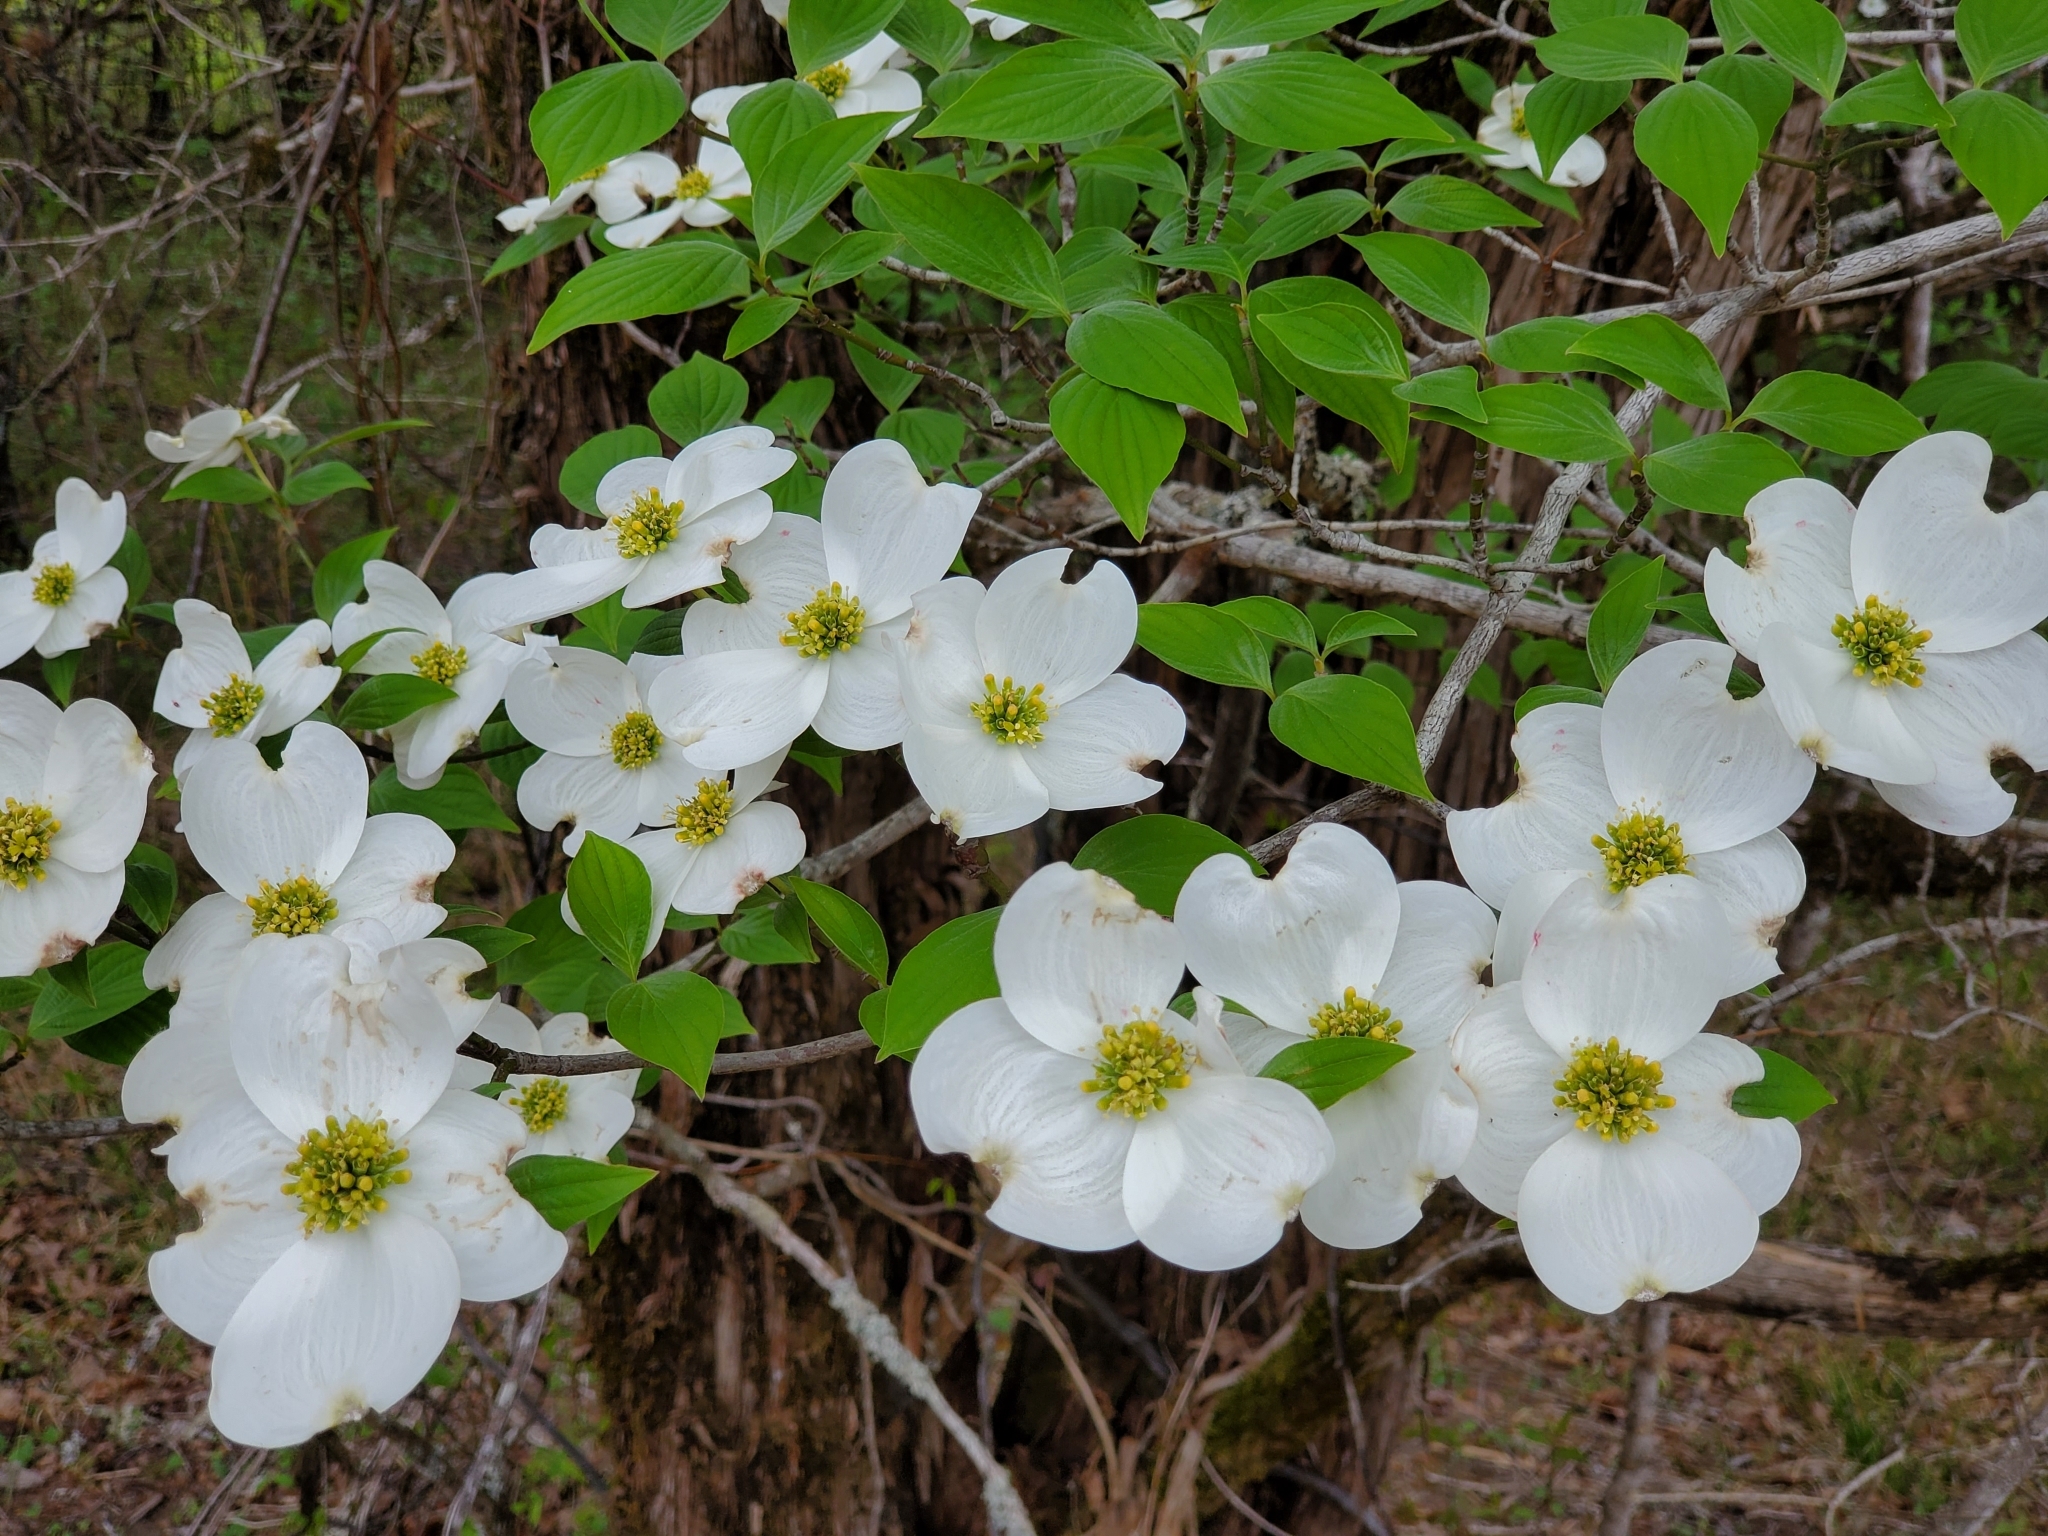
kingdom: Plantae
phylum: Tracheophyta
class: Magnoliopsida
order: Cornales
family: Cornaceae
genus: Cornus
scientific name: Cornus florida
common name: Flowering dogwood
